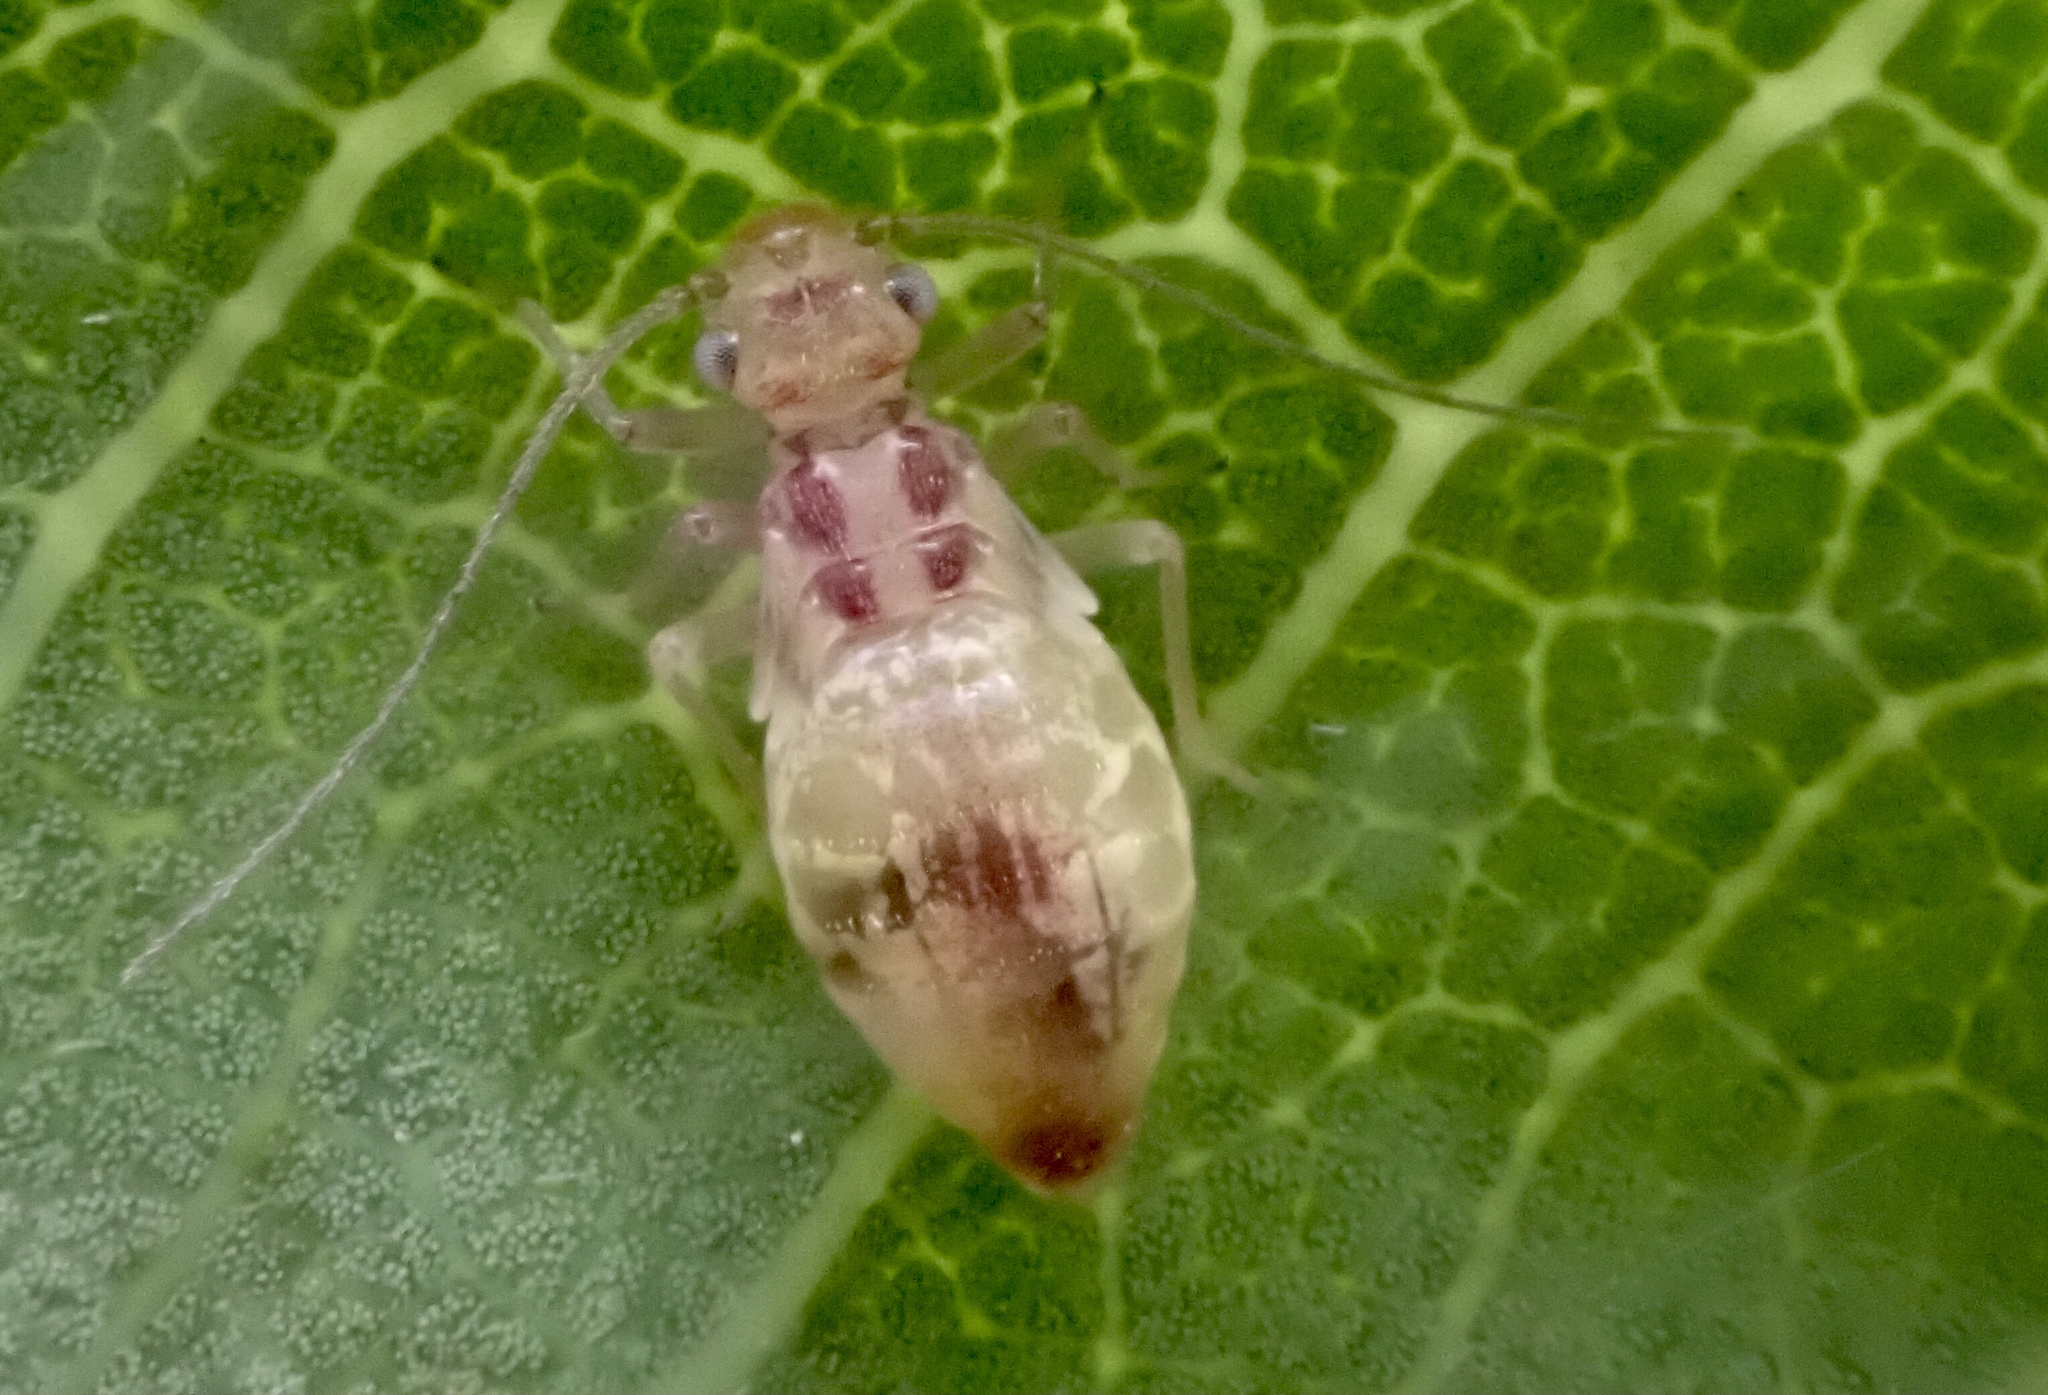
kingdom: Animalia
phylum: Arthropoda
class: Insecta
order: Psocodea
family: Stenopsocidae
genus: Graphopsocus
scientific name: Graphopsocus cruciatus
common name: Lizard bark louse
